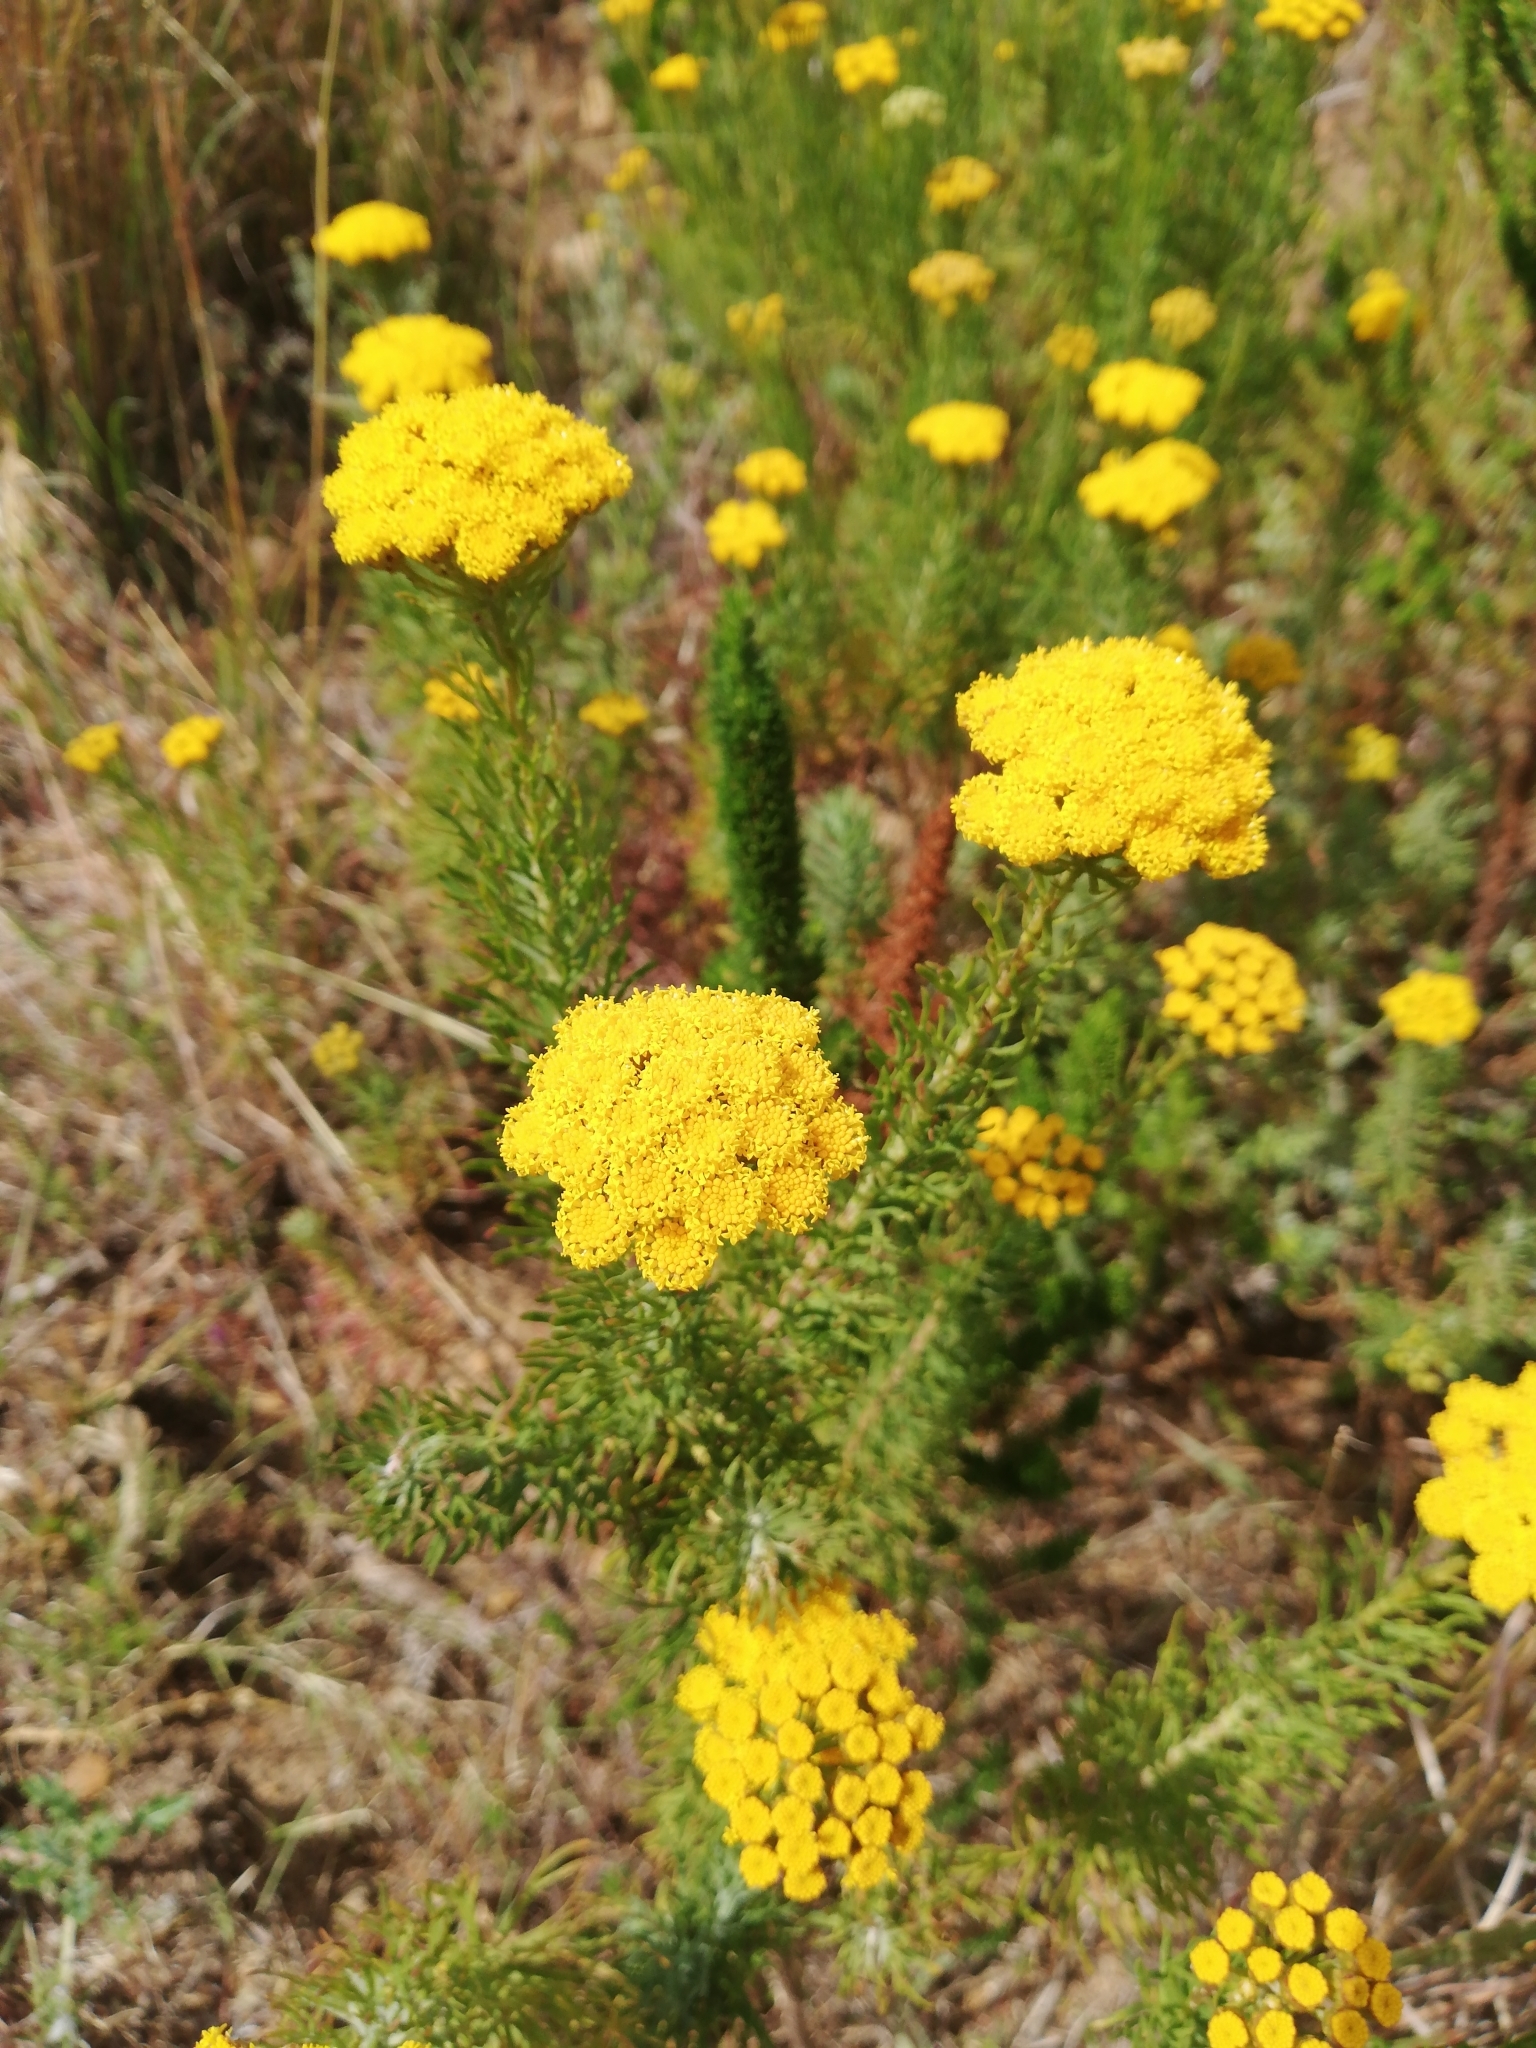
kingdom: Plantae
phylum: Tracheophyta
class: Magnoliopsida
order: Asterales
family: Asteraceae
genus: Athanasia
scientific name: Athanasia crithmifolia
